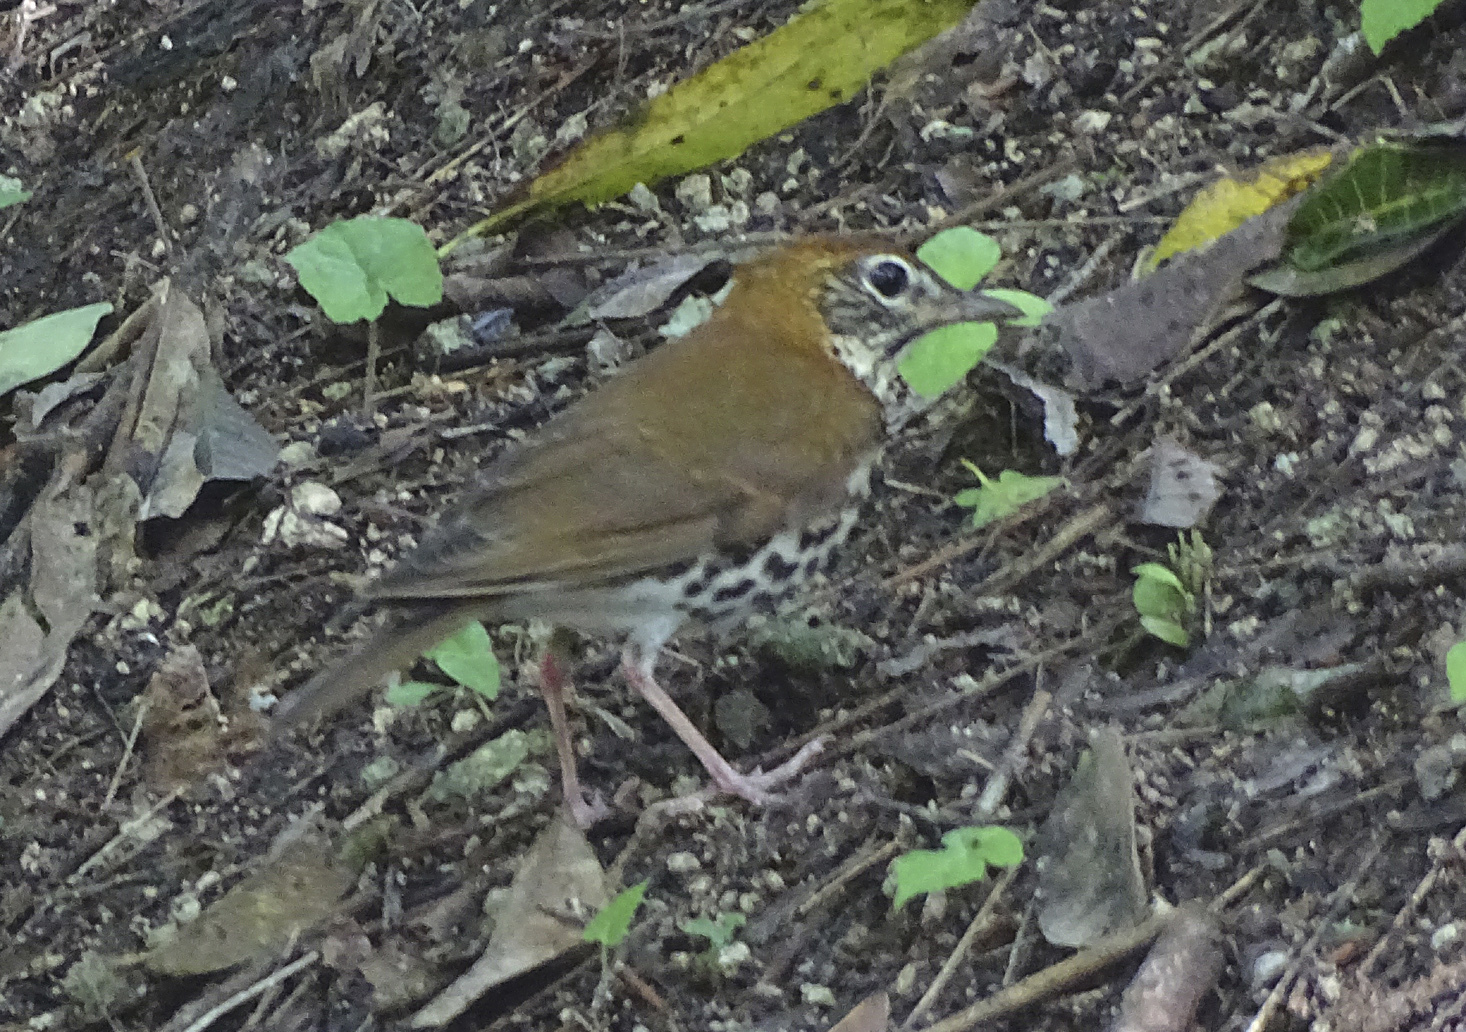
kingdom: Animalia
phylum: Chordata
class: Aves
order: Passeriformes
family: Turdidae
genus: Hylocichla
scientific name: Hylocichla mustelina
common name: Wood thrush
